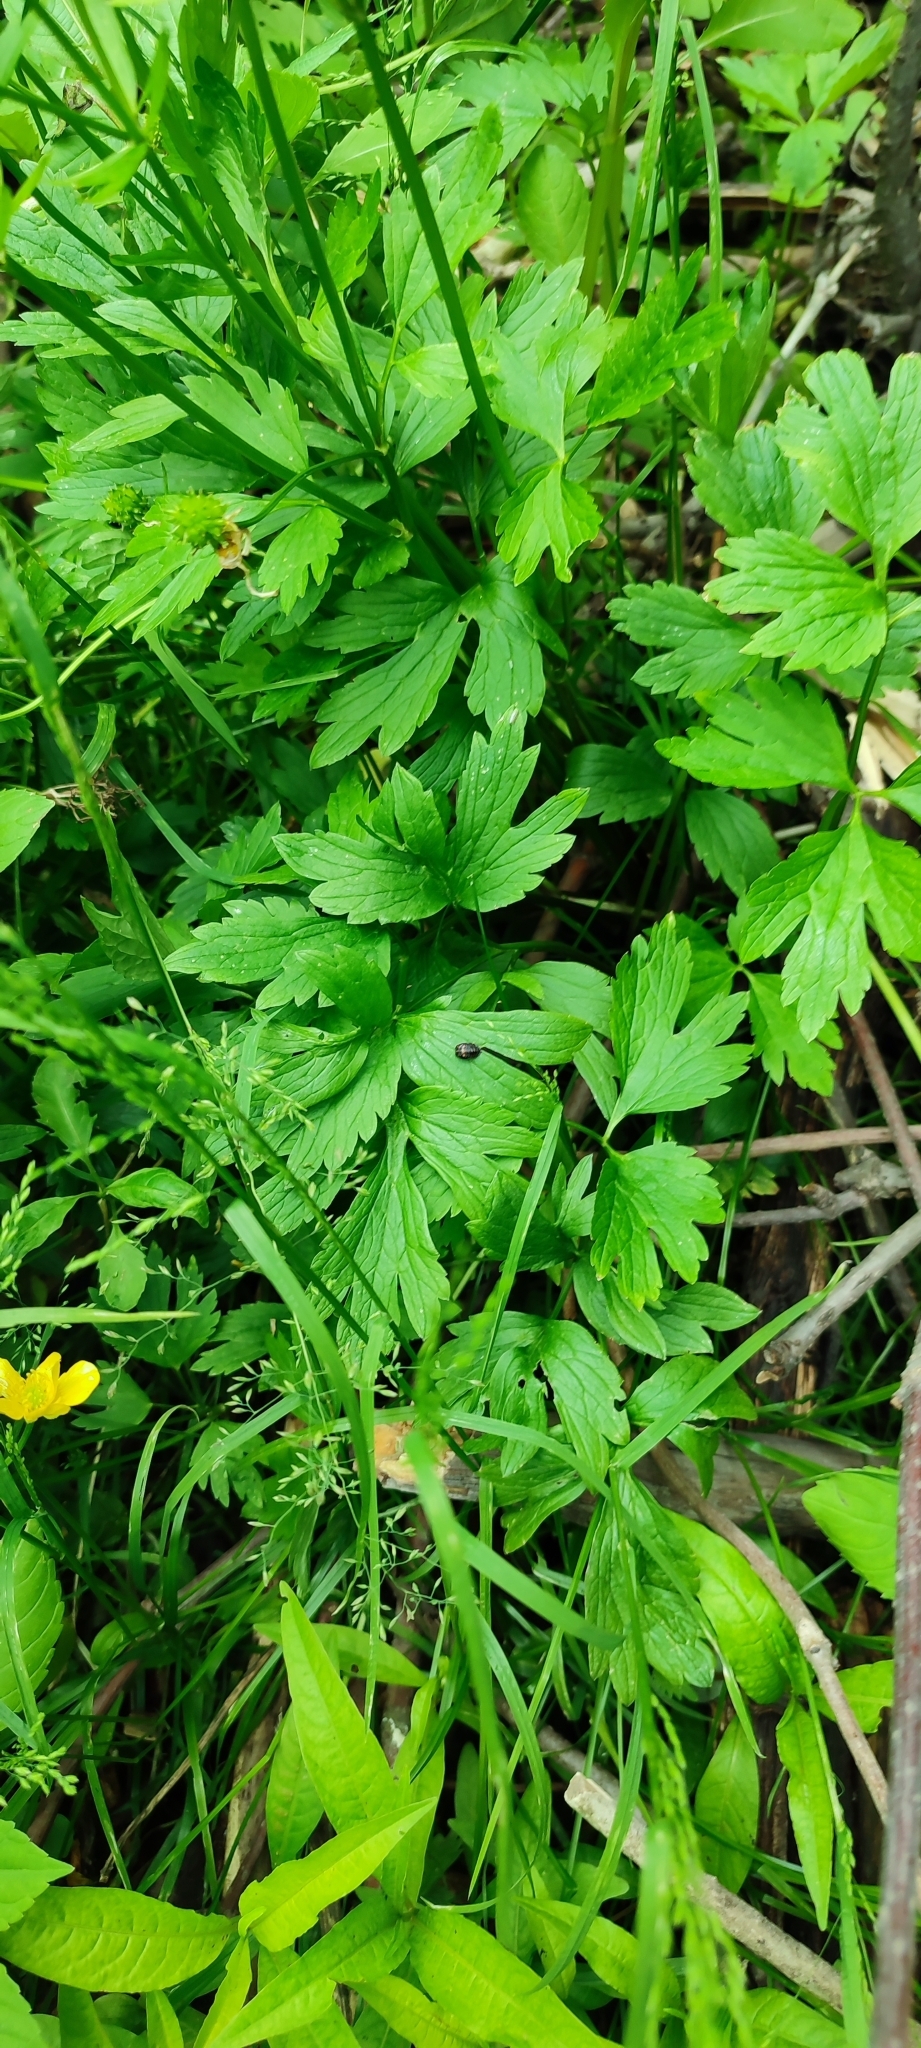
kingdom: Plantae
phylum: Tracheophyta
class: Magnoliopsida
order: Ranunculales
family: Ranunculaceae
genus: Ranunculus
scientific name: Ranunculus repens
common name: Creeping buttercup
